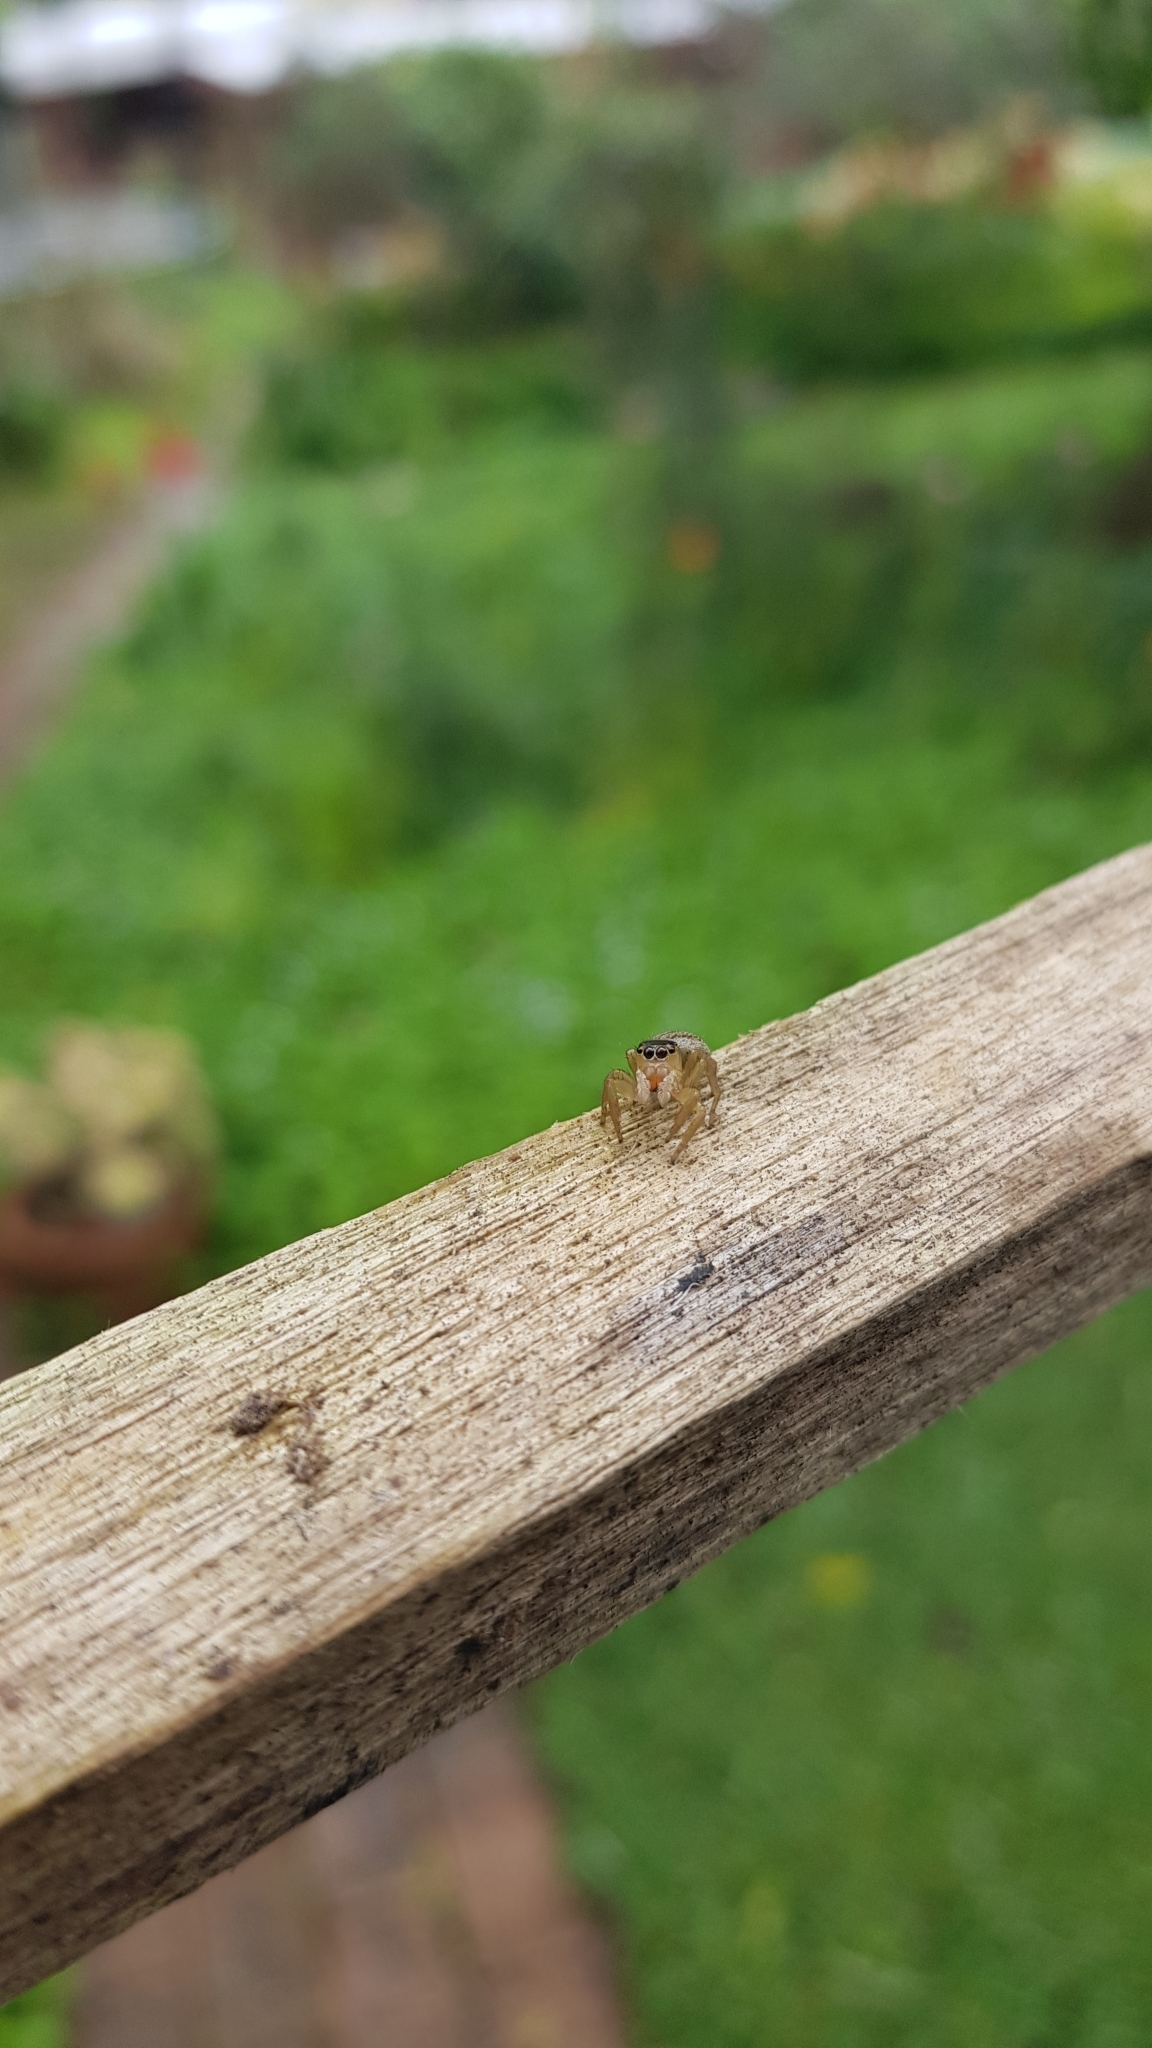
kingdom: Animalia
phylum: Arthropoda
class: Arachnida
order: Araneae
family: Salticidae
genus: Maratus
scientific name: Maratus scutulatus
